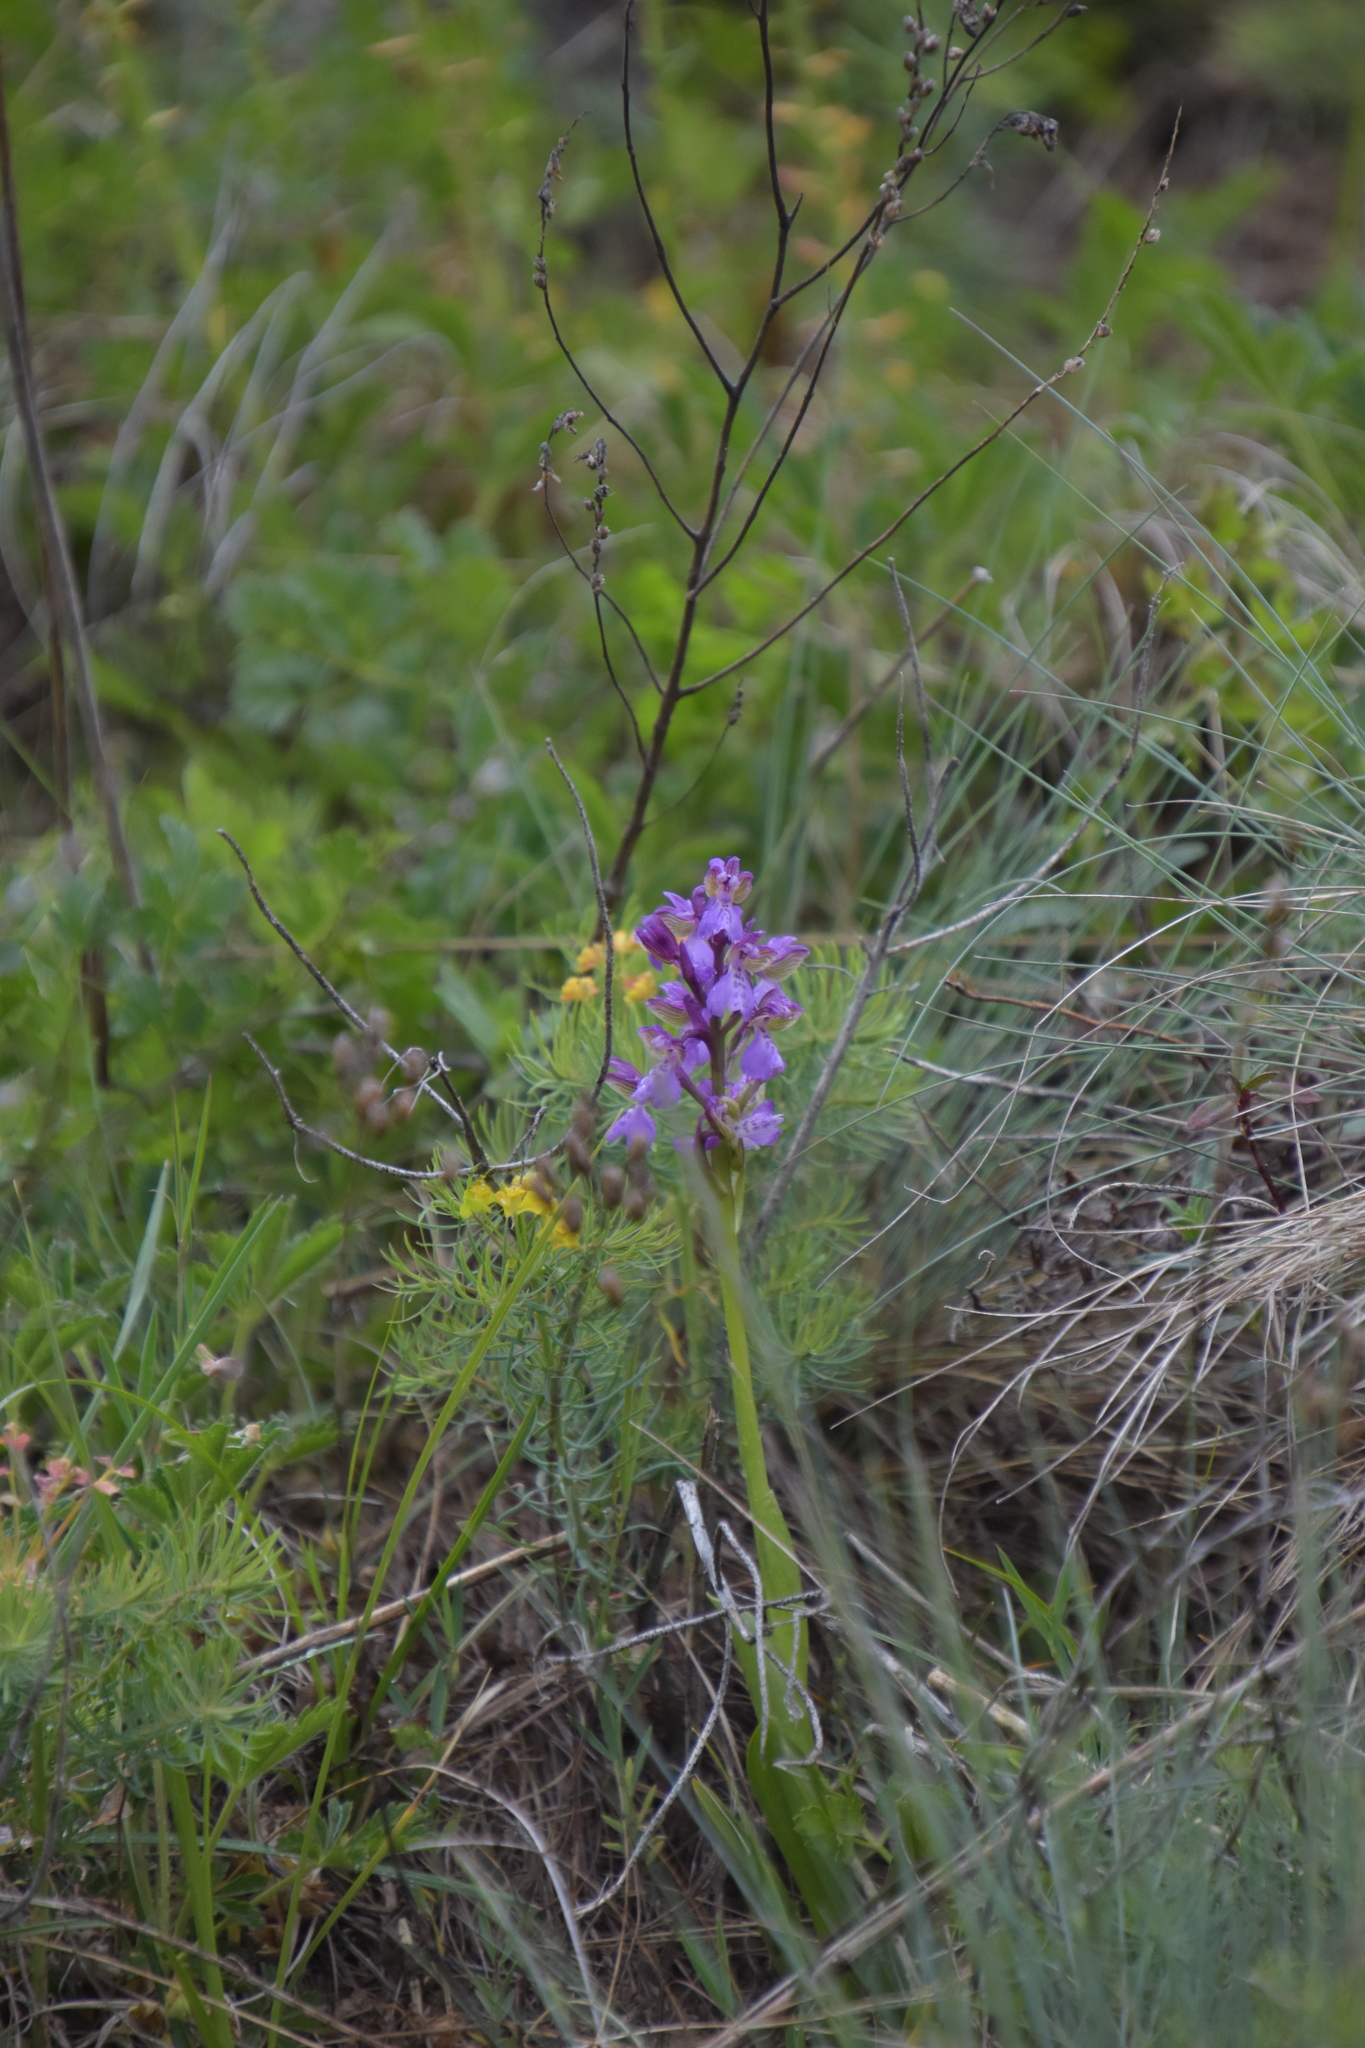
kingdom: Plantae
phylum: Tracheophyta
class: Liliopsida
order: Asparagales
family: Orchidaceae
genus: Anacamptis
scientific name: Anacamptis morio
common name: Green-winged orchid
